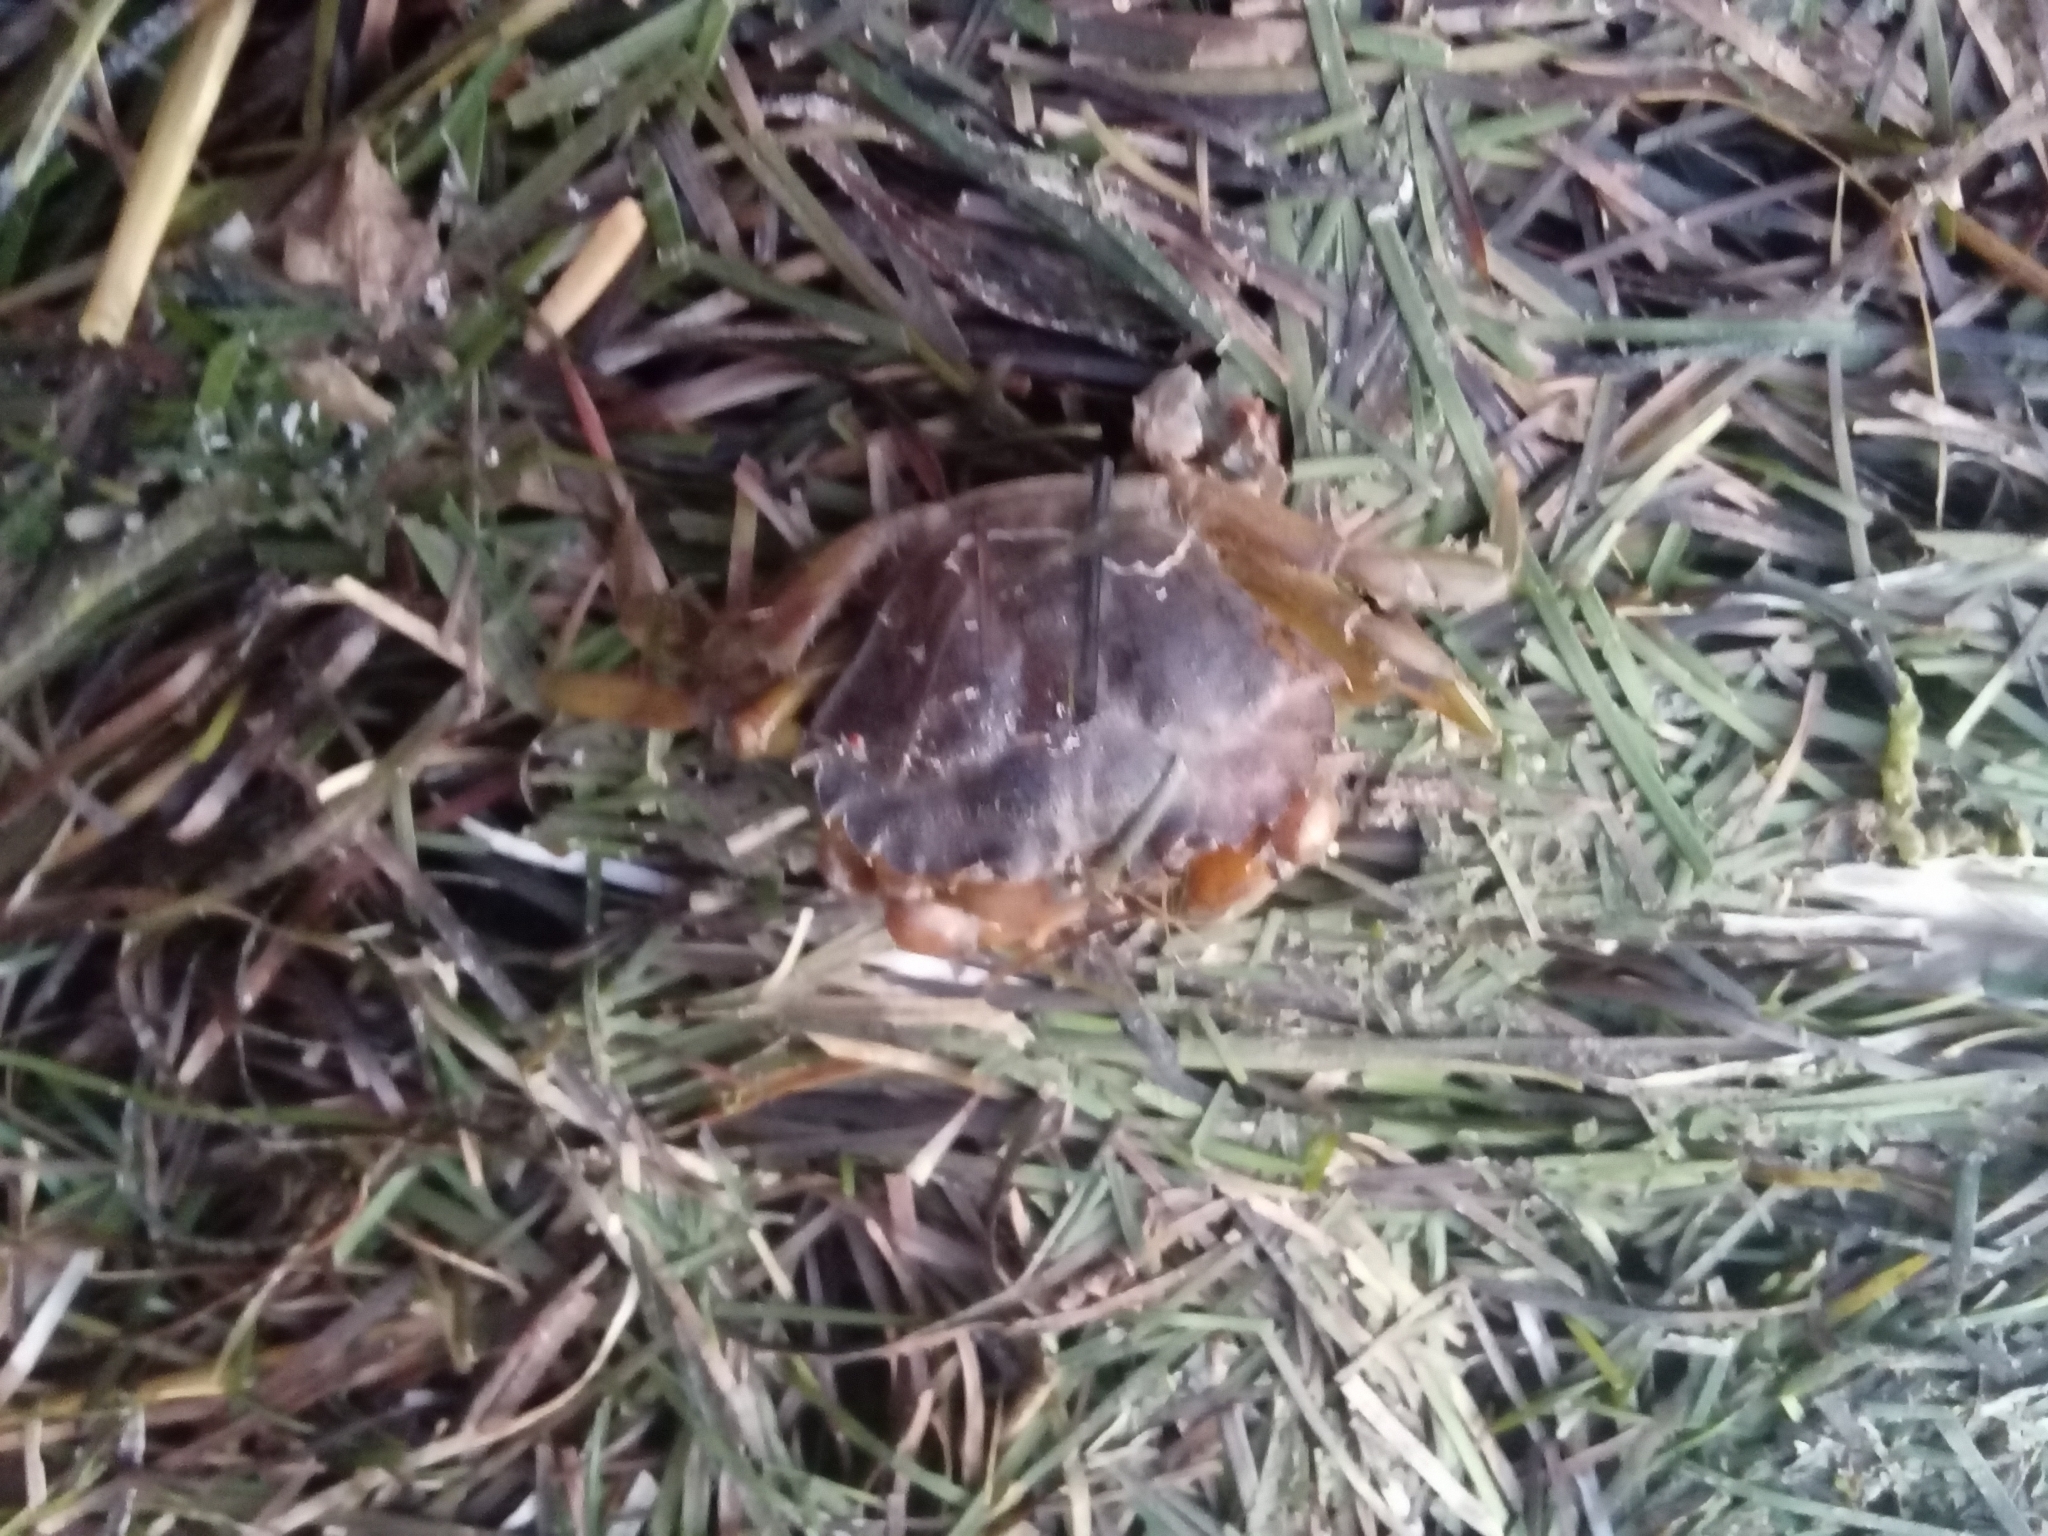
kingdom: Animalia
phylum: Arthropoda
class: Malacostraca
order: Decapoda
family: Carcinidae
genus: Carcinus
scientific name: Carcinus maenas
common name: European green crab
